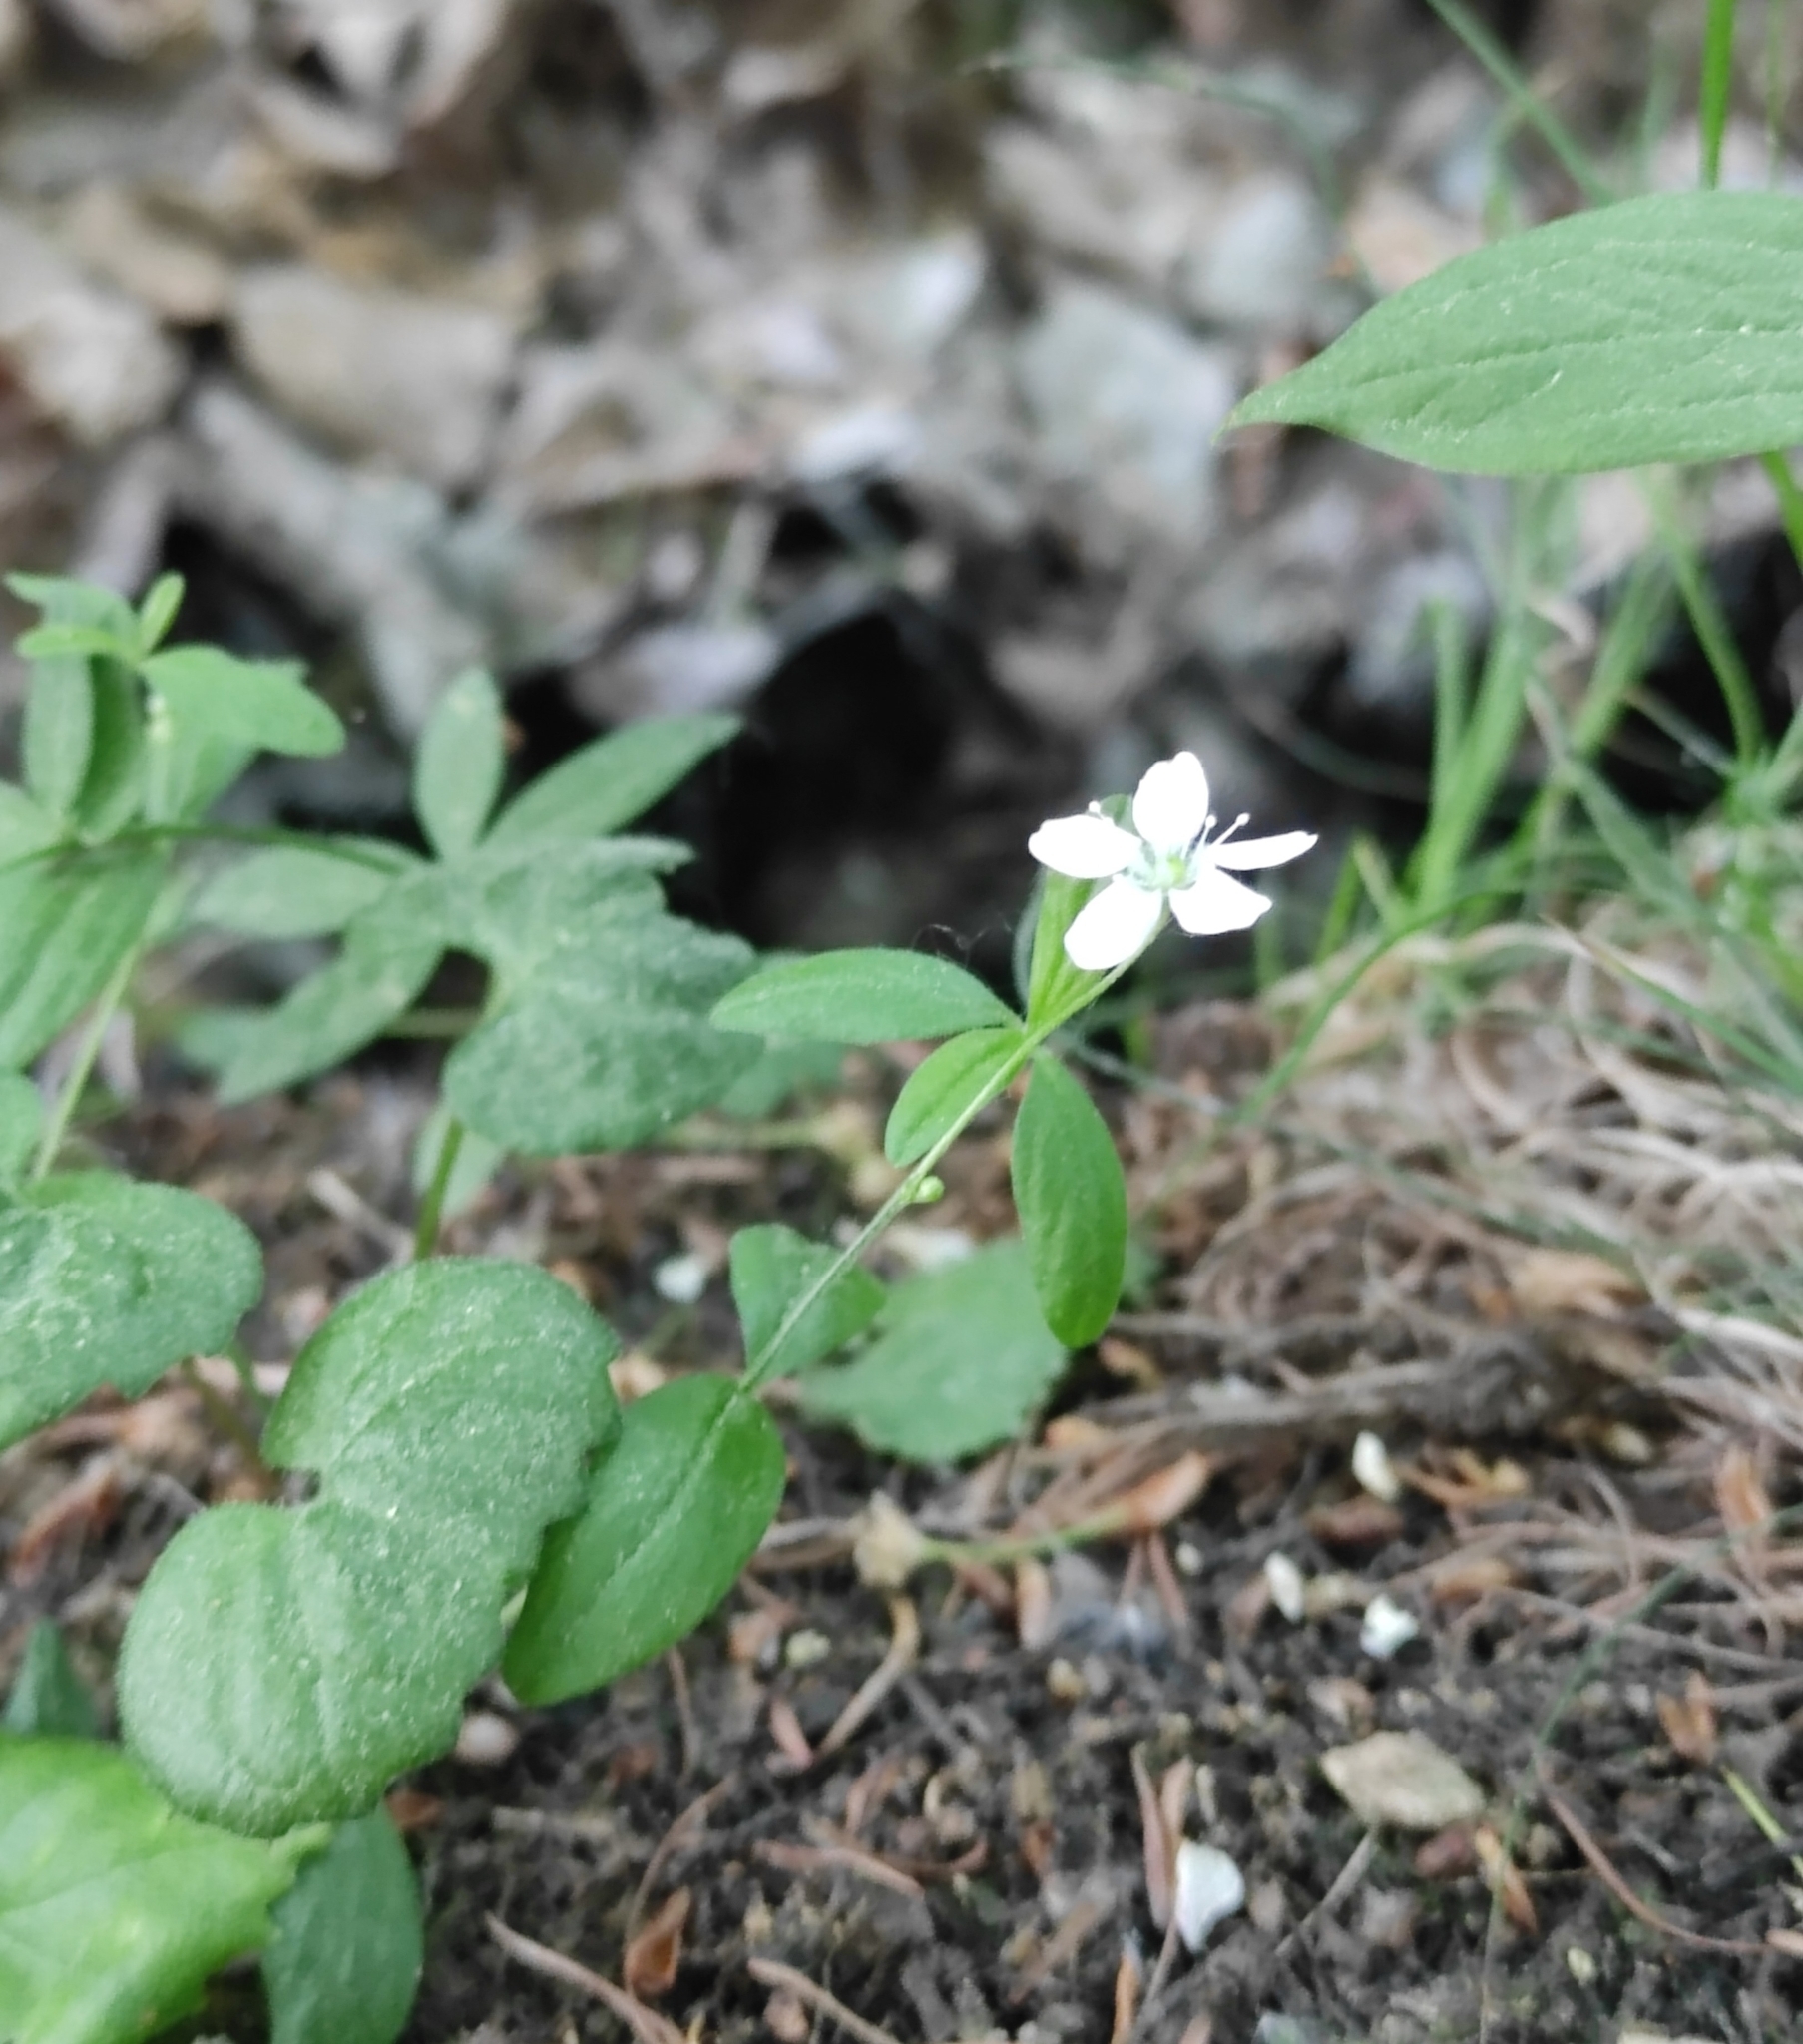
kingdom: Plantae
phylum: Tracheophyta
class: Magnoliopsida
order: Caryophyllales
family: Caryophyllaceae
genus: Moehringia
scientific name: Moehringia lateriflora
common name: Blunt-leaved sandwort
